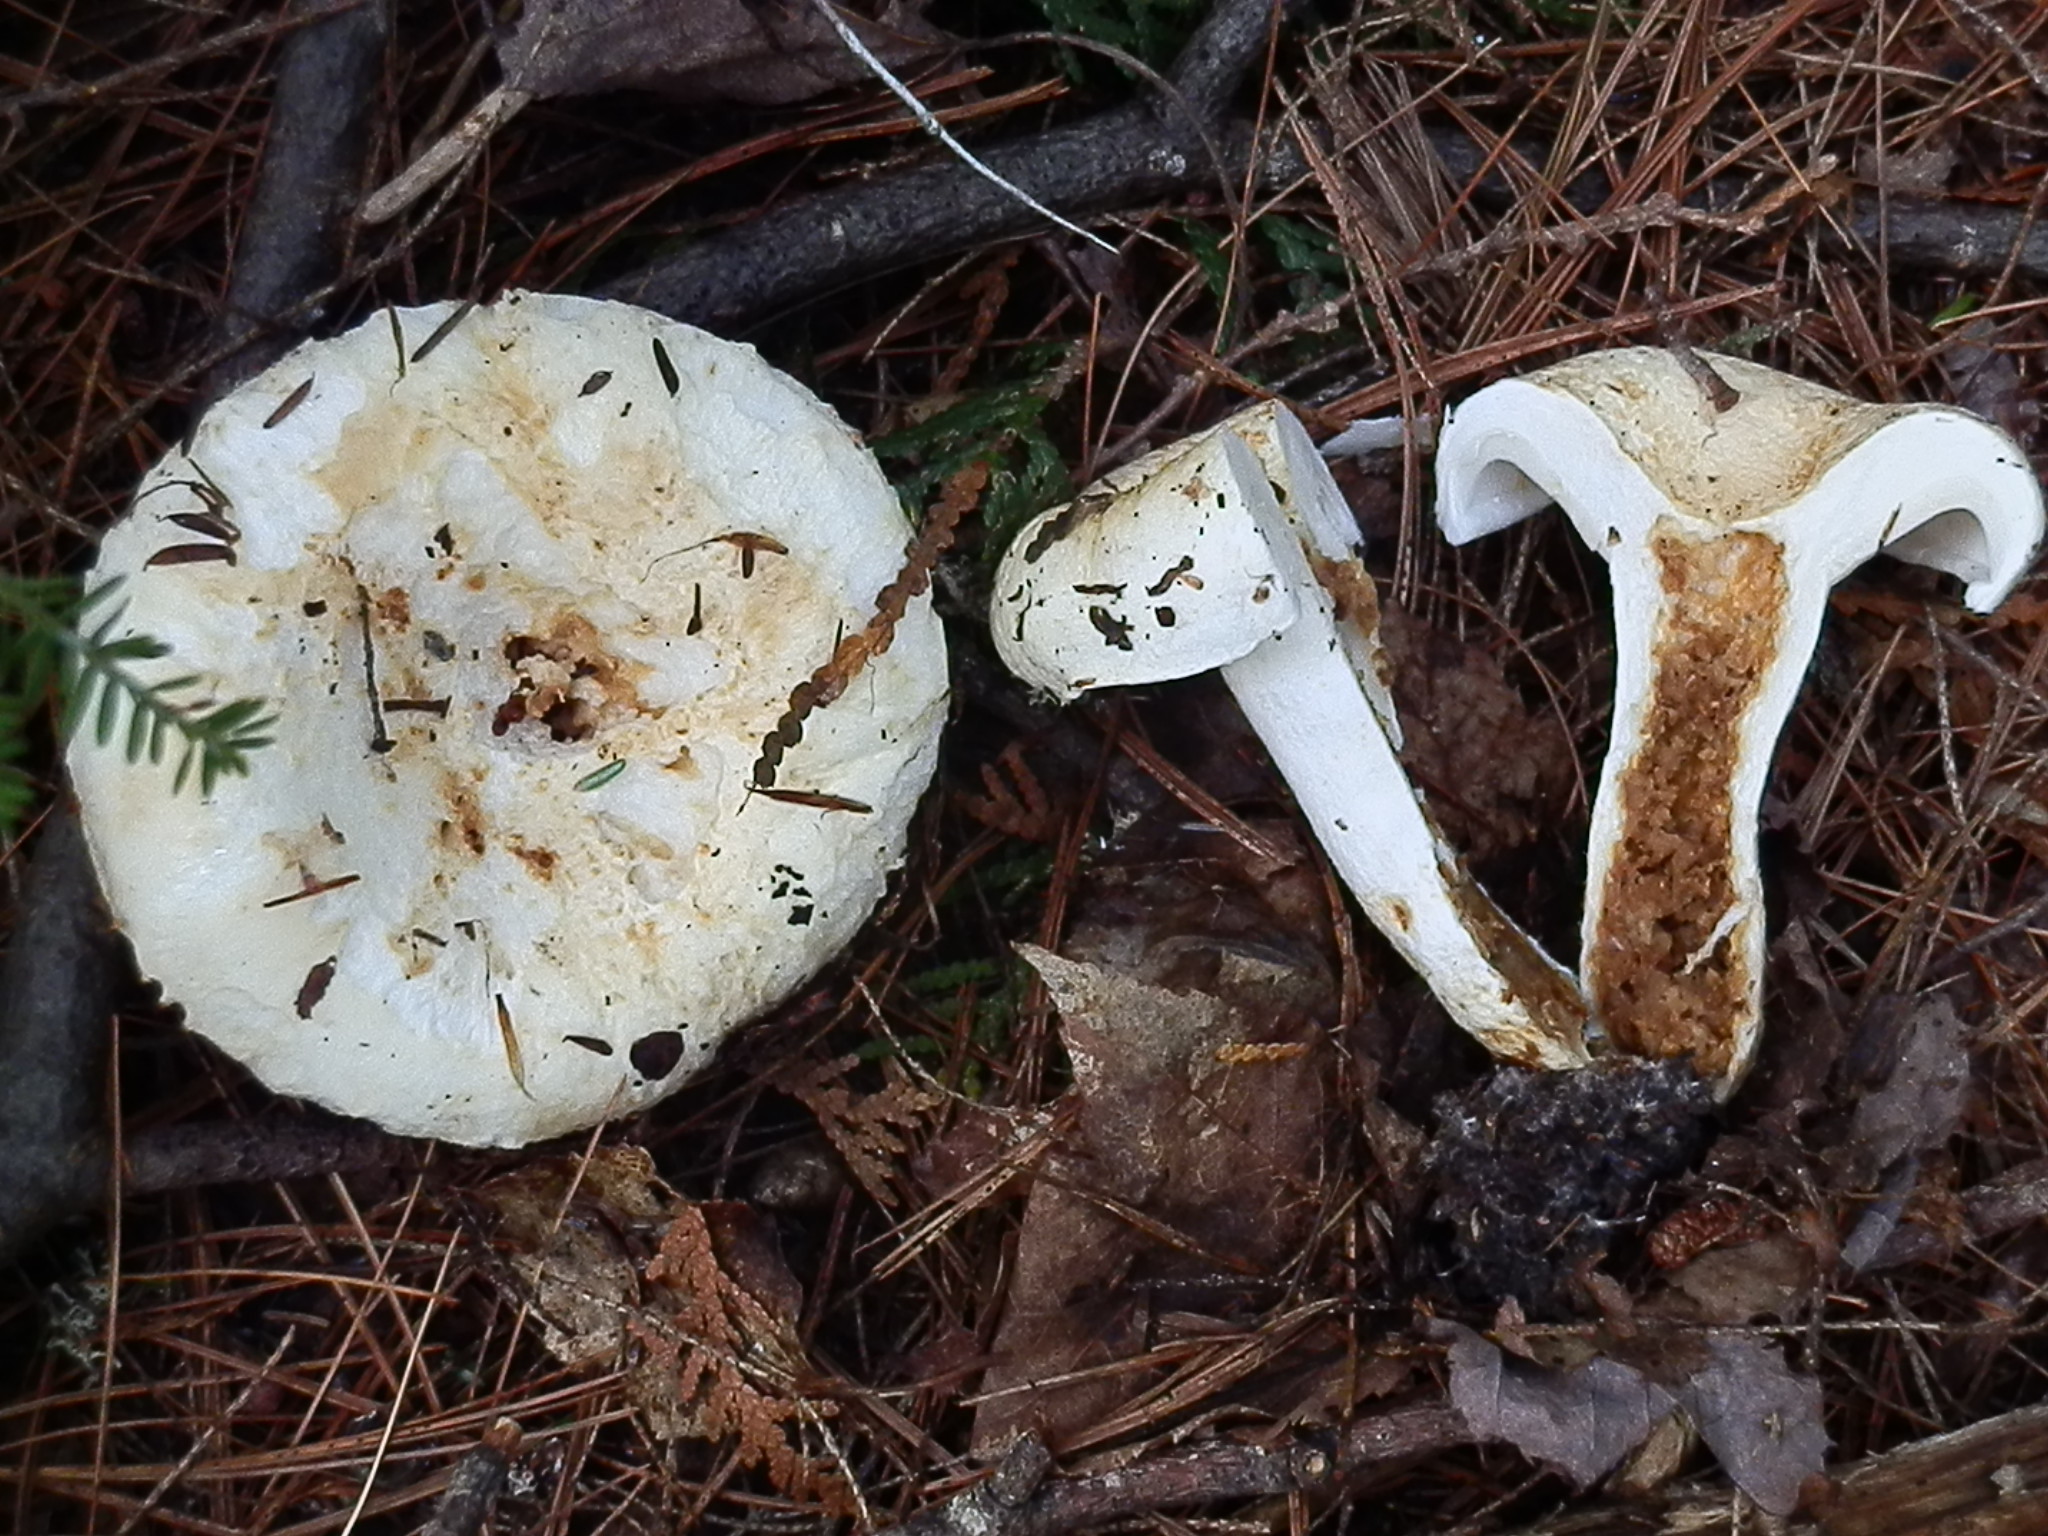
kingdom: Fungi
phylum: Basidiomycota
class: Agaricomycetes
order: Russulales
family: Russulaceae
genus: Lactifluus
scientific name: Lactifluus
